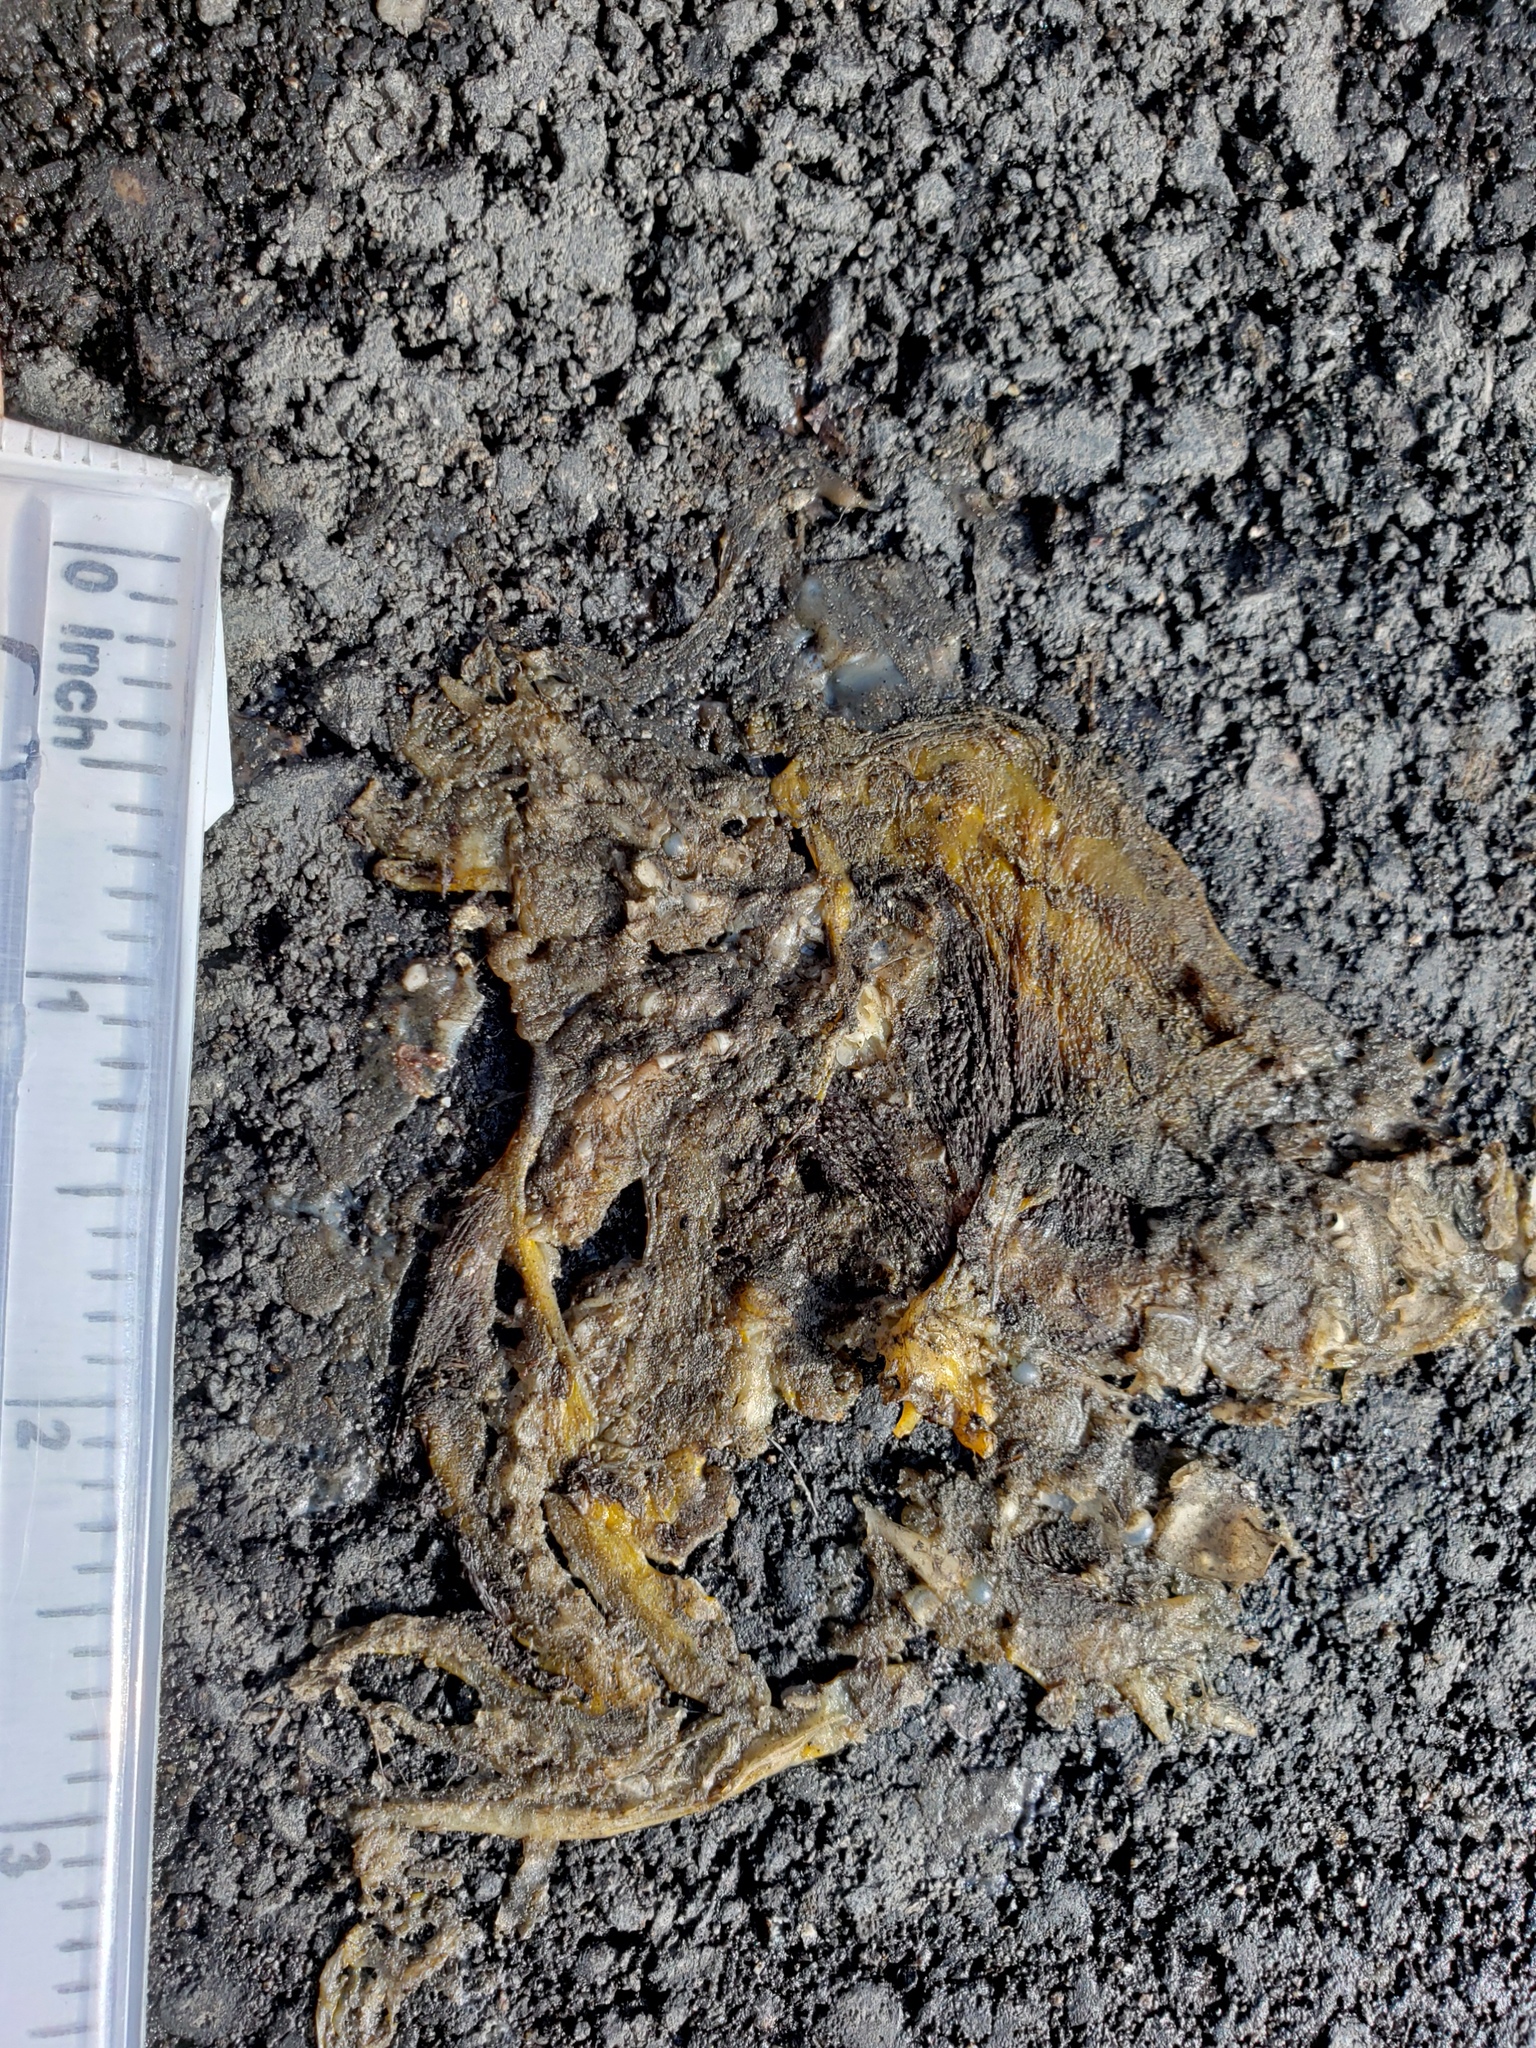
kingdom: Animalia
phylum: Chordata
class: Amphibia
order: Caudata
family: Salamandridae
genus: Taricha
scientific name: Taricha
